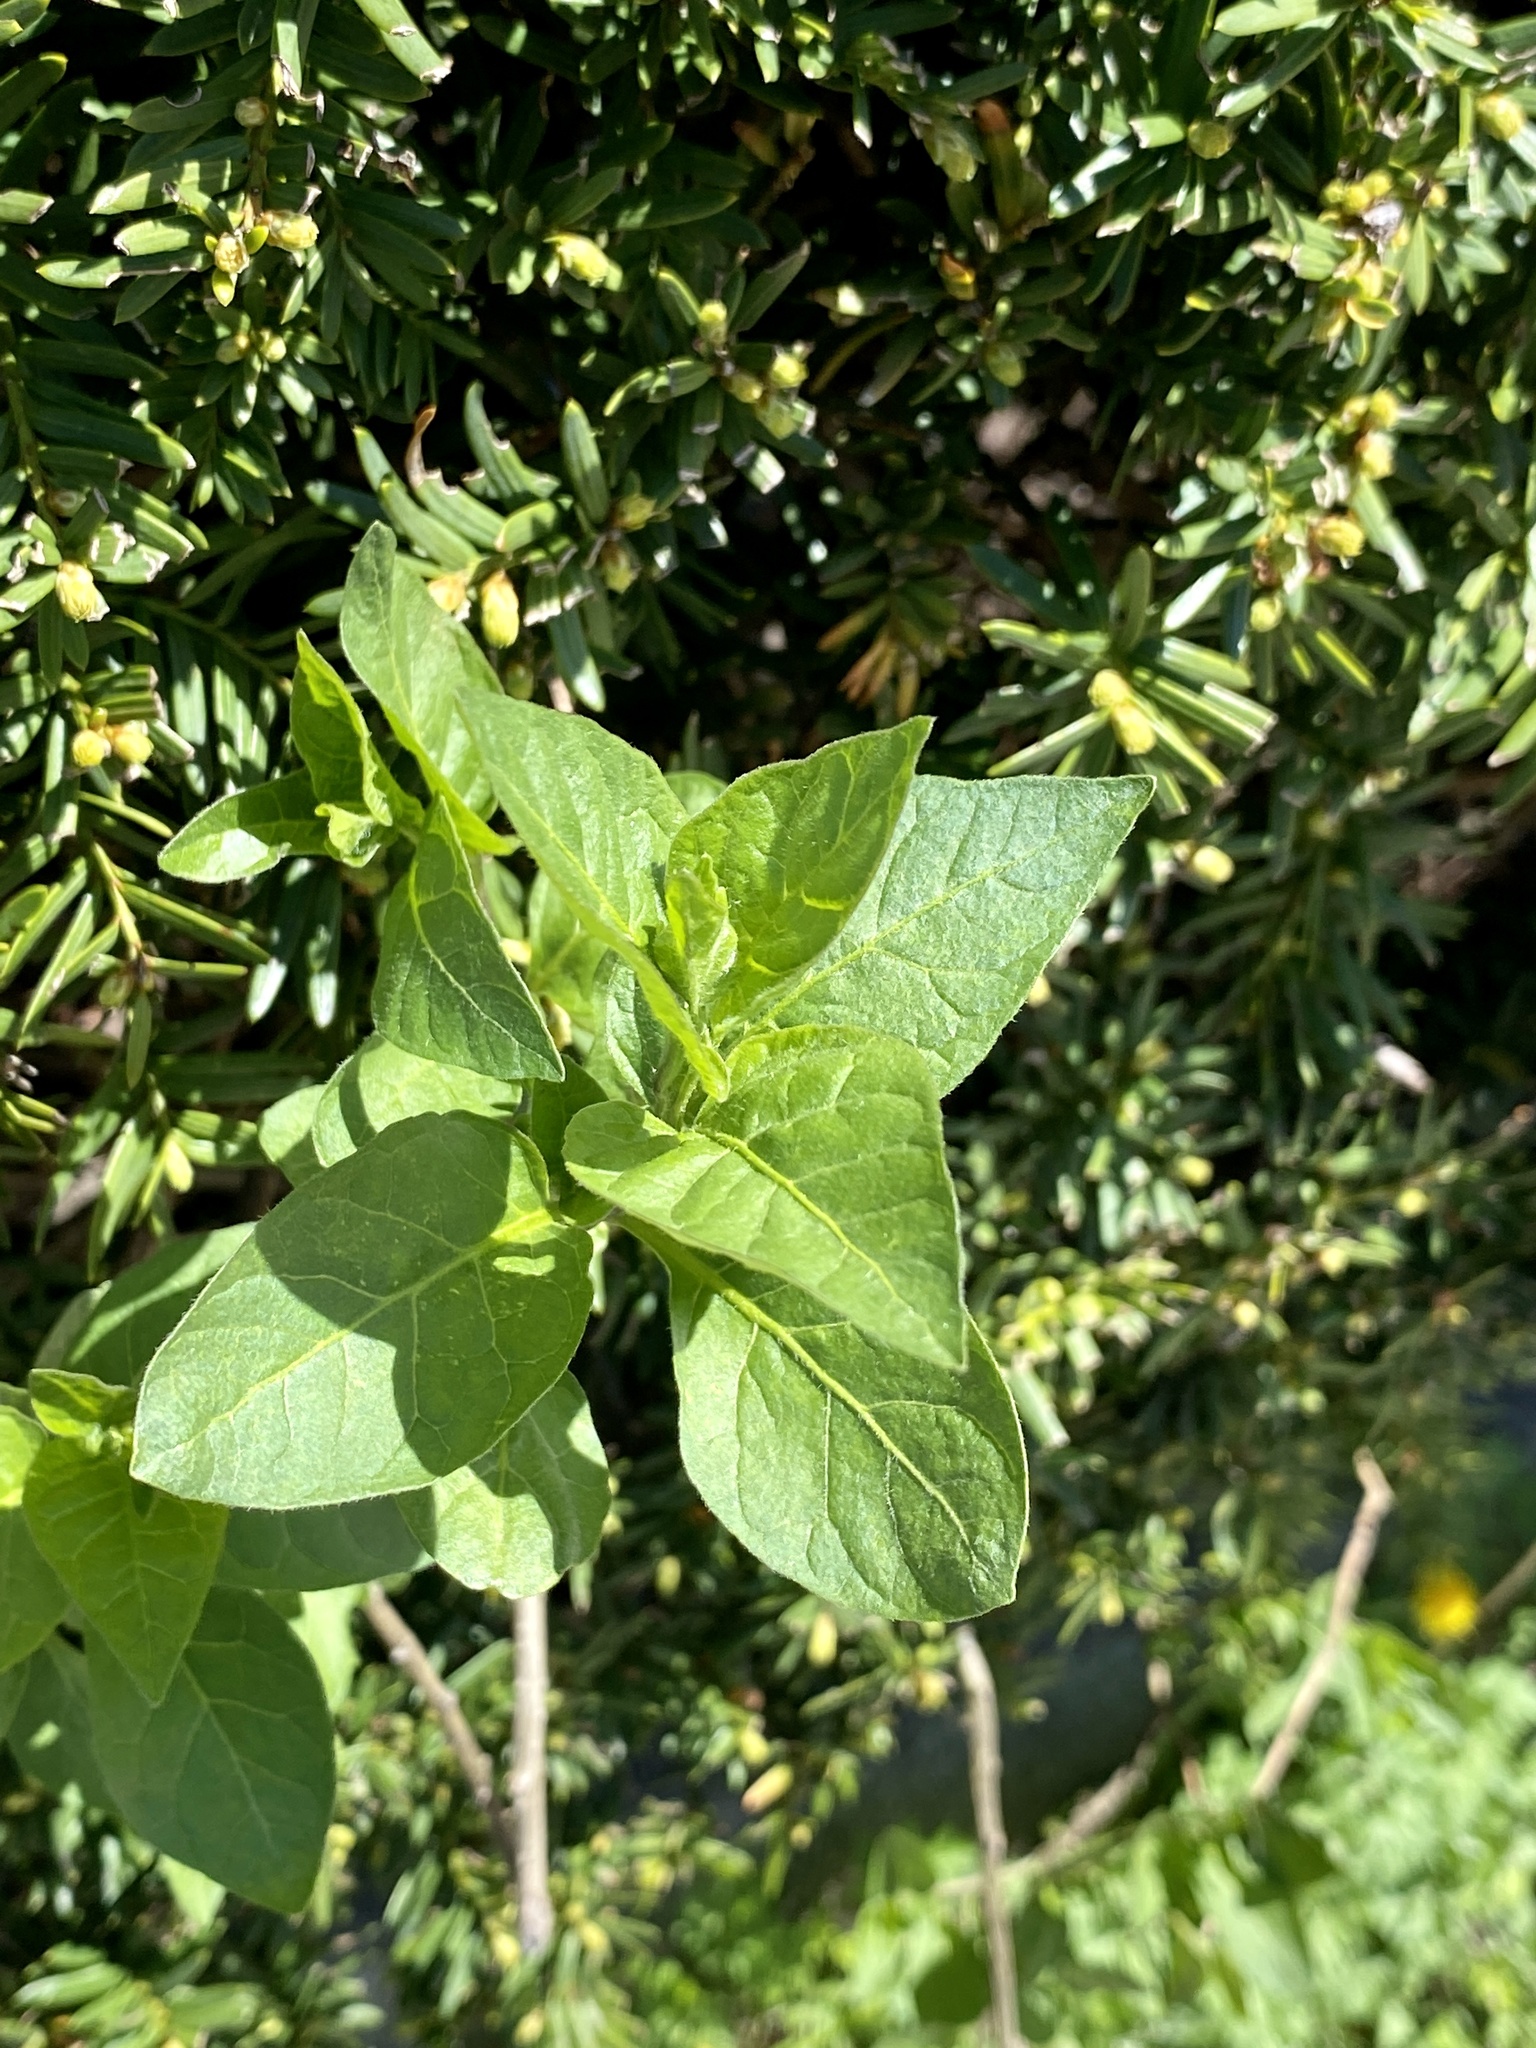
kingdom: Plantae
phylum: Tracheophyta
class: Magnoliopsida
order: Solanales
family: Solanaceae
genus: Solanum
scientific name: Solanum dulcamara
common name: Climbing nightshade
